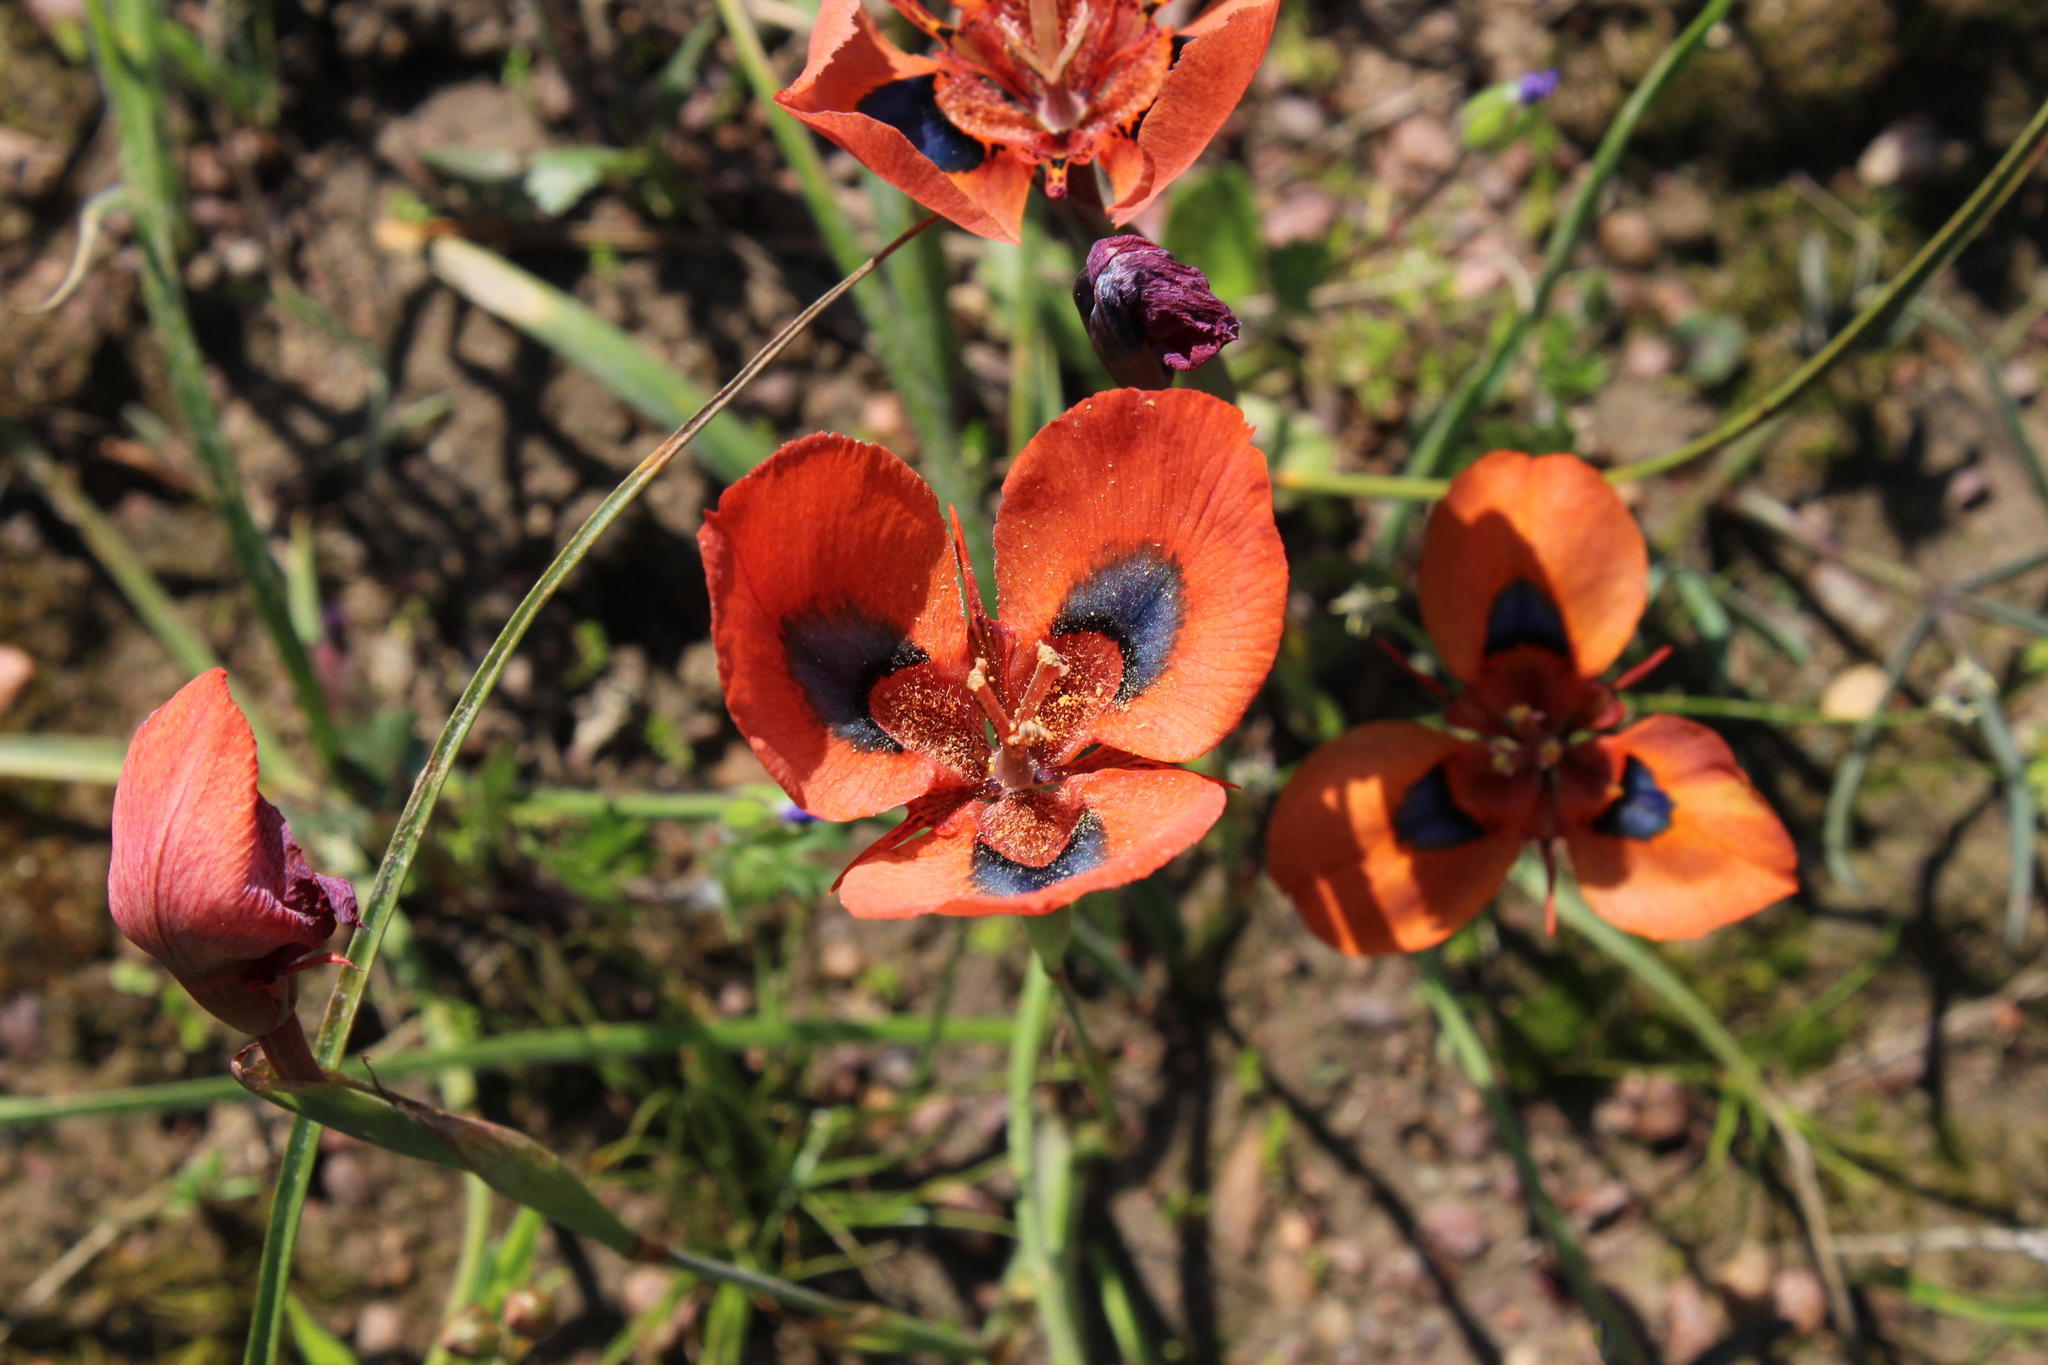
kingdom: Plantae
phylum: Tracheophyta
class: Liliopsida
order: Asparagales
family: Iridaceae
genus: Moraea
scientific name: Moraea tulbaghensis
